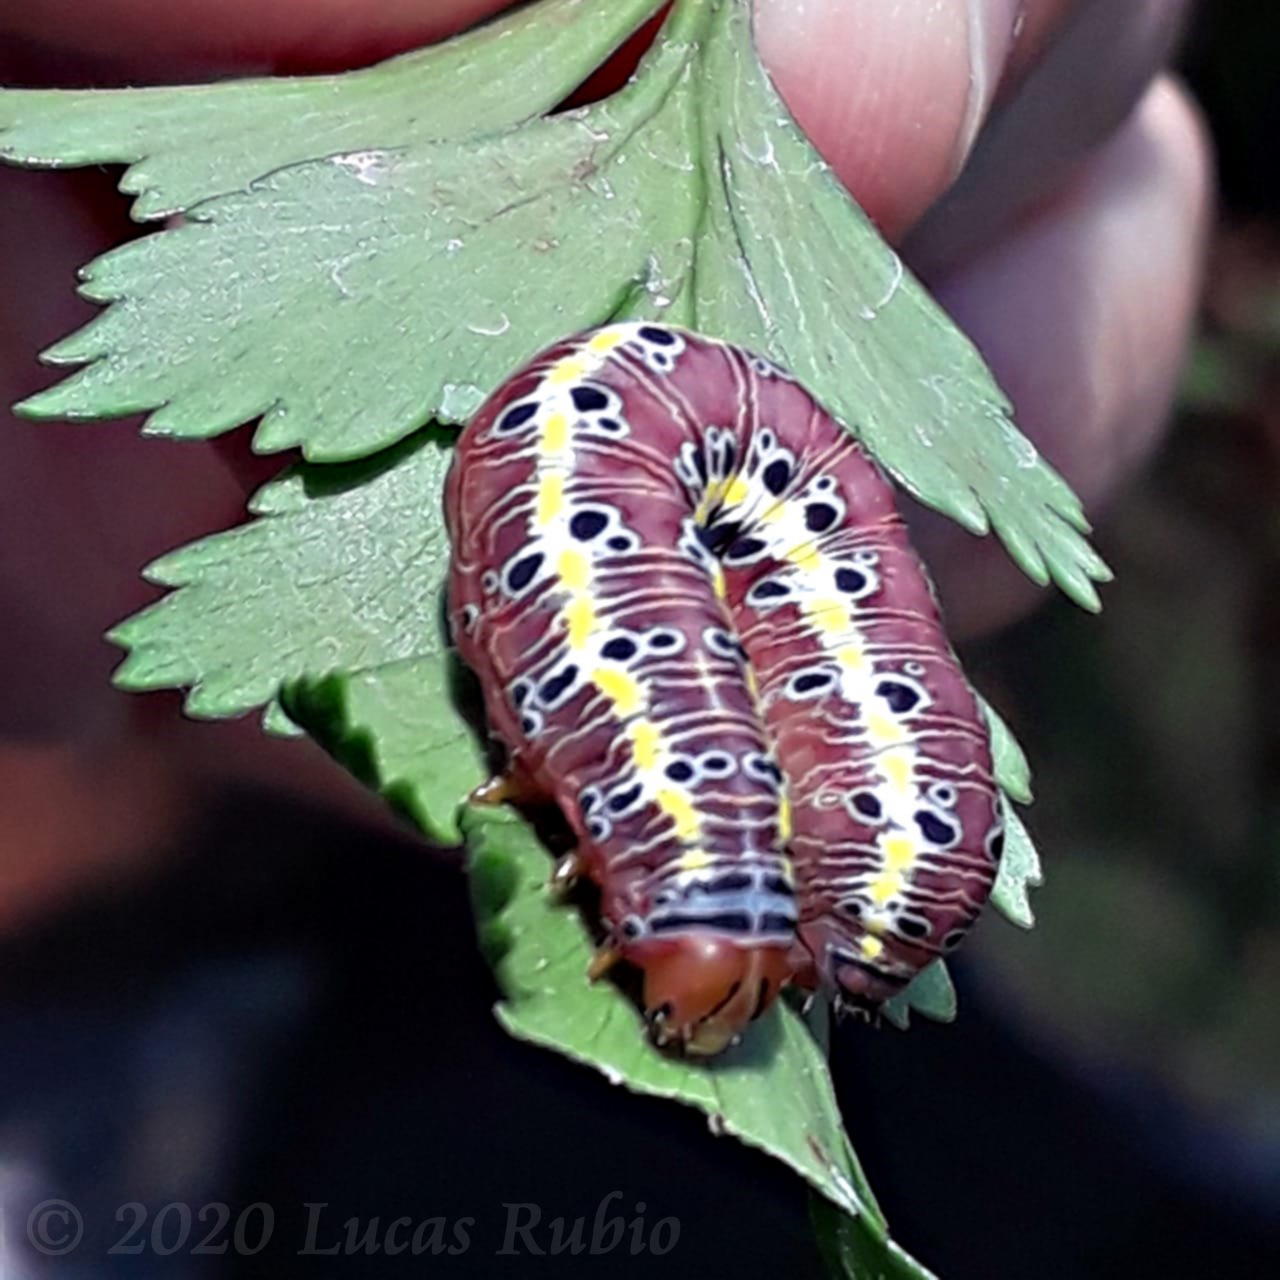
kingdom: Animalia
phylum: Arthropoda
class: Insecta
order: Lepidoptera
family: Noctuidae
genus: Argyrosticta
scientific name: Argyrosticta decumana
